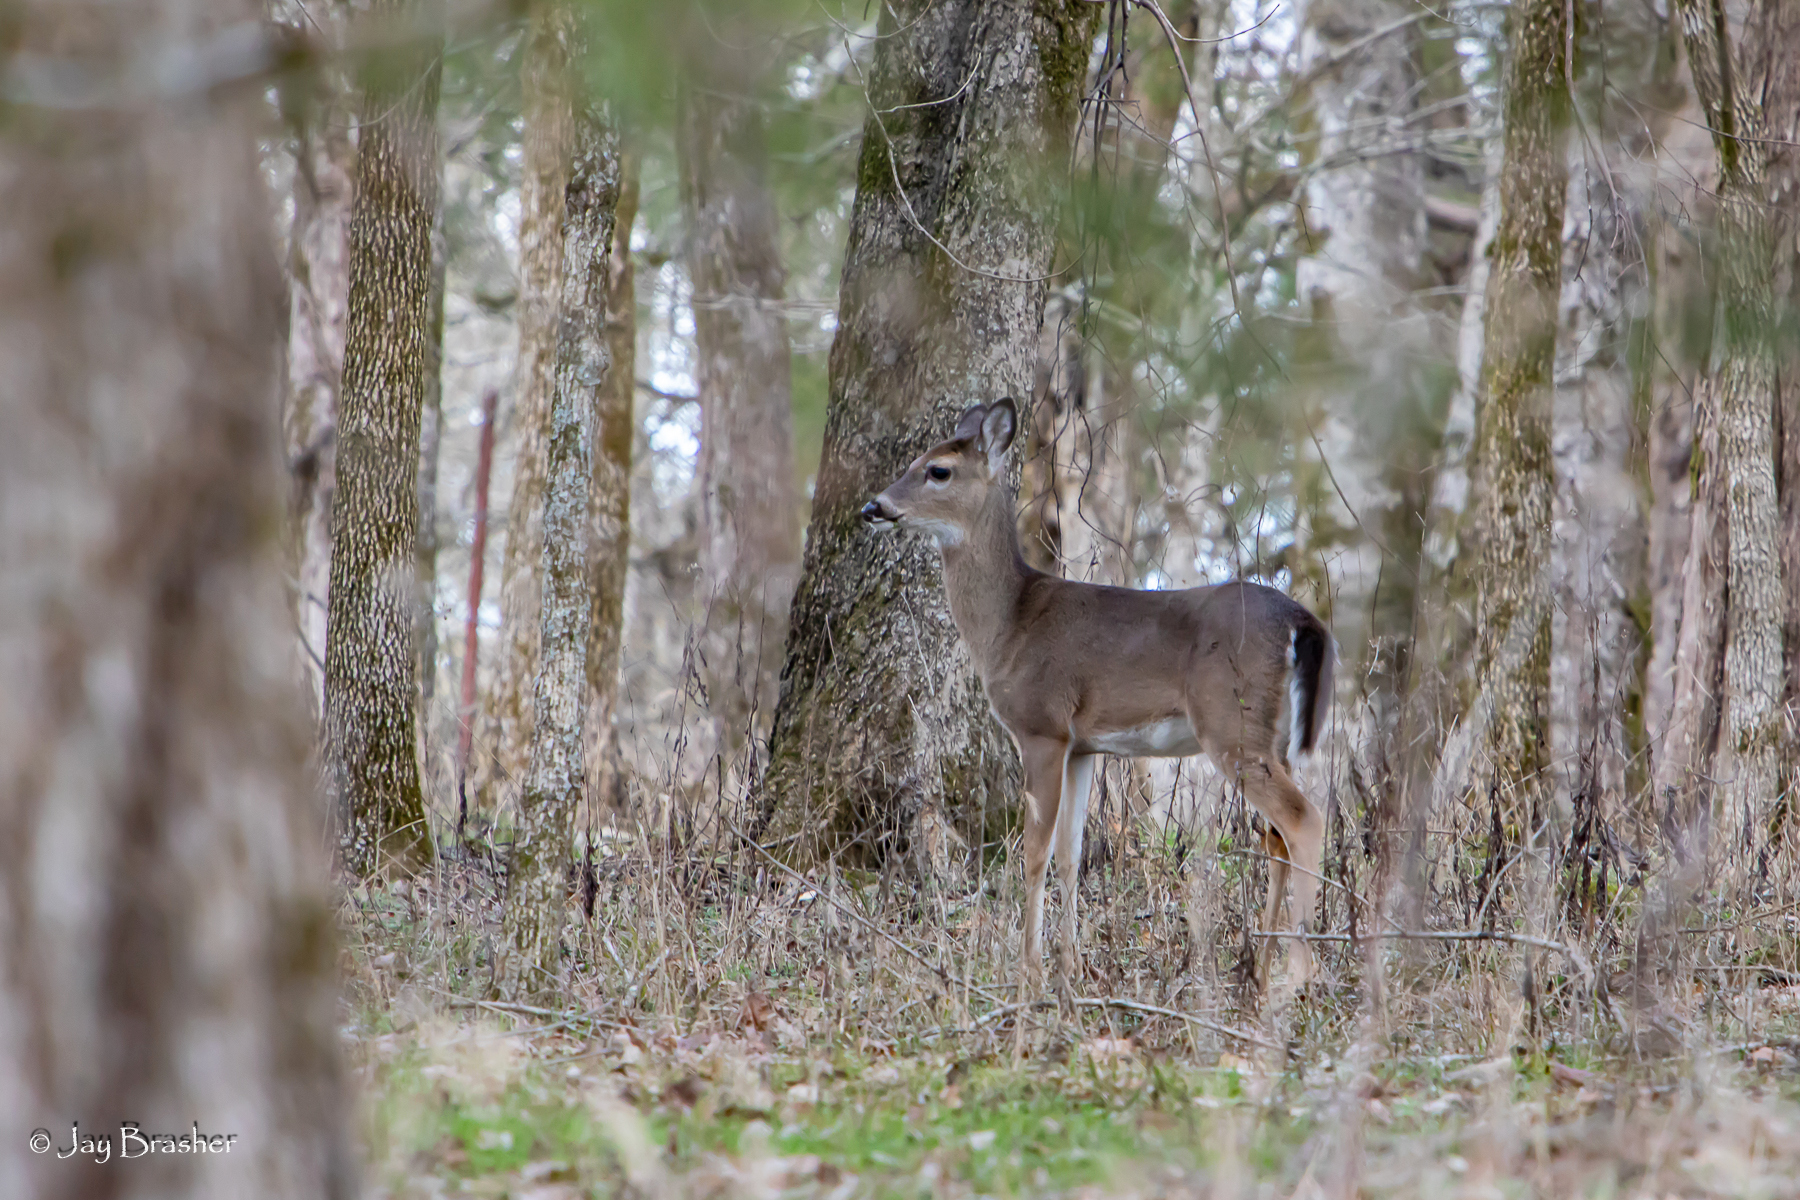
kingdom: Animalia
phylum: Chordata
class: Mammalia
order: Artiodactyla
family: Cervidae
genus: Odocoileus
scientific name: Odocoileus virginianus
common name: White-tailed deer
